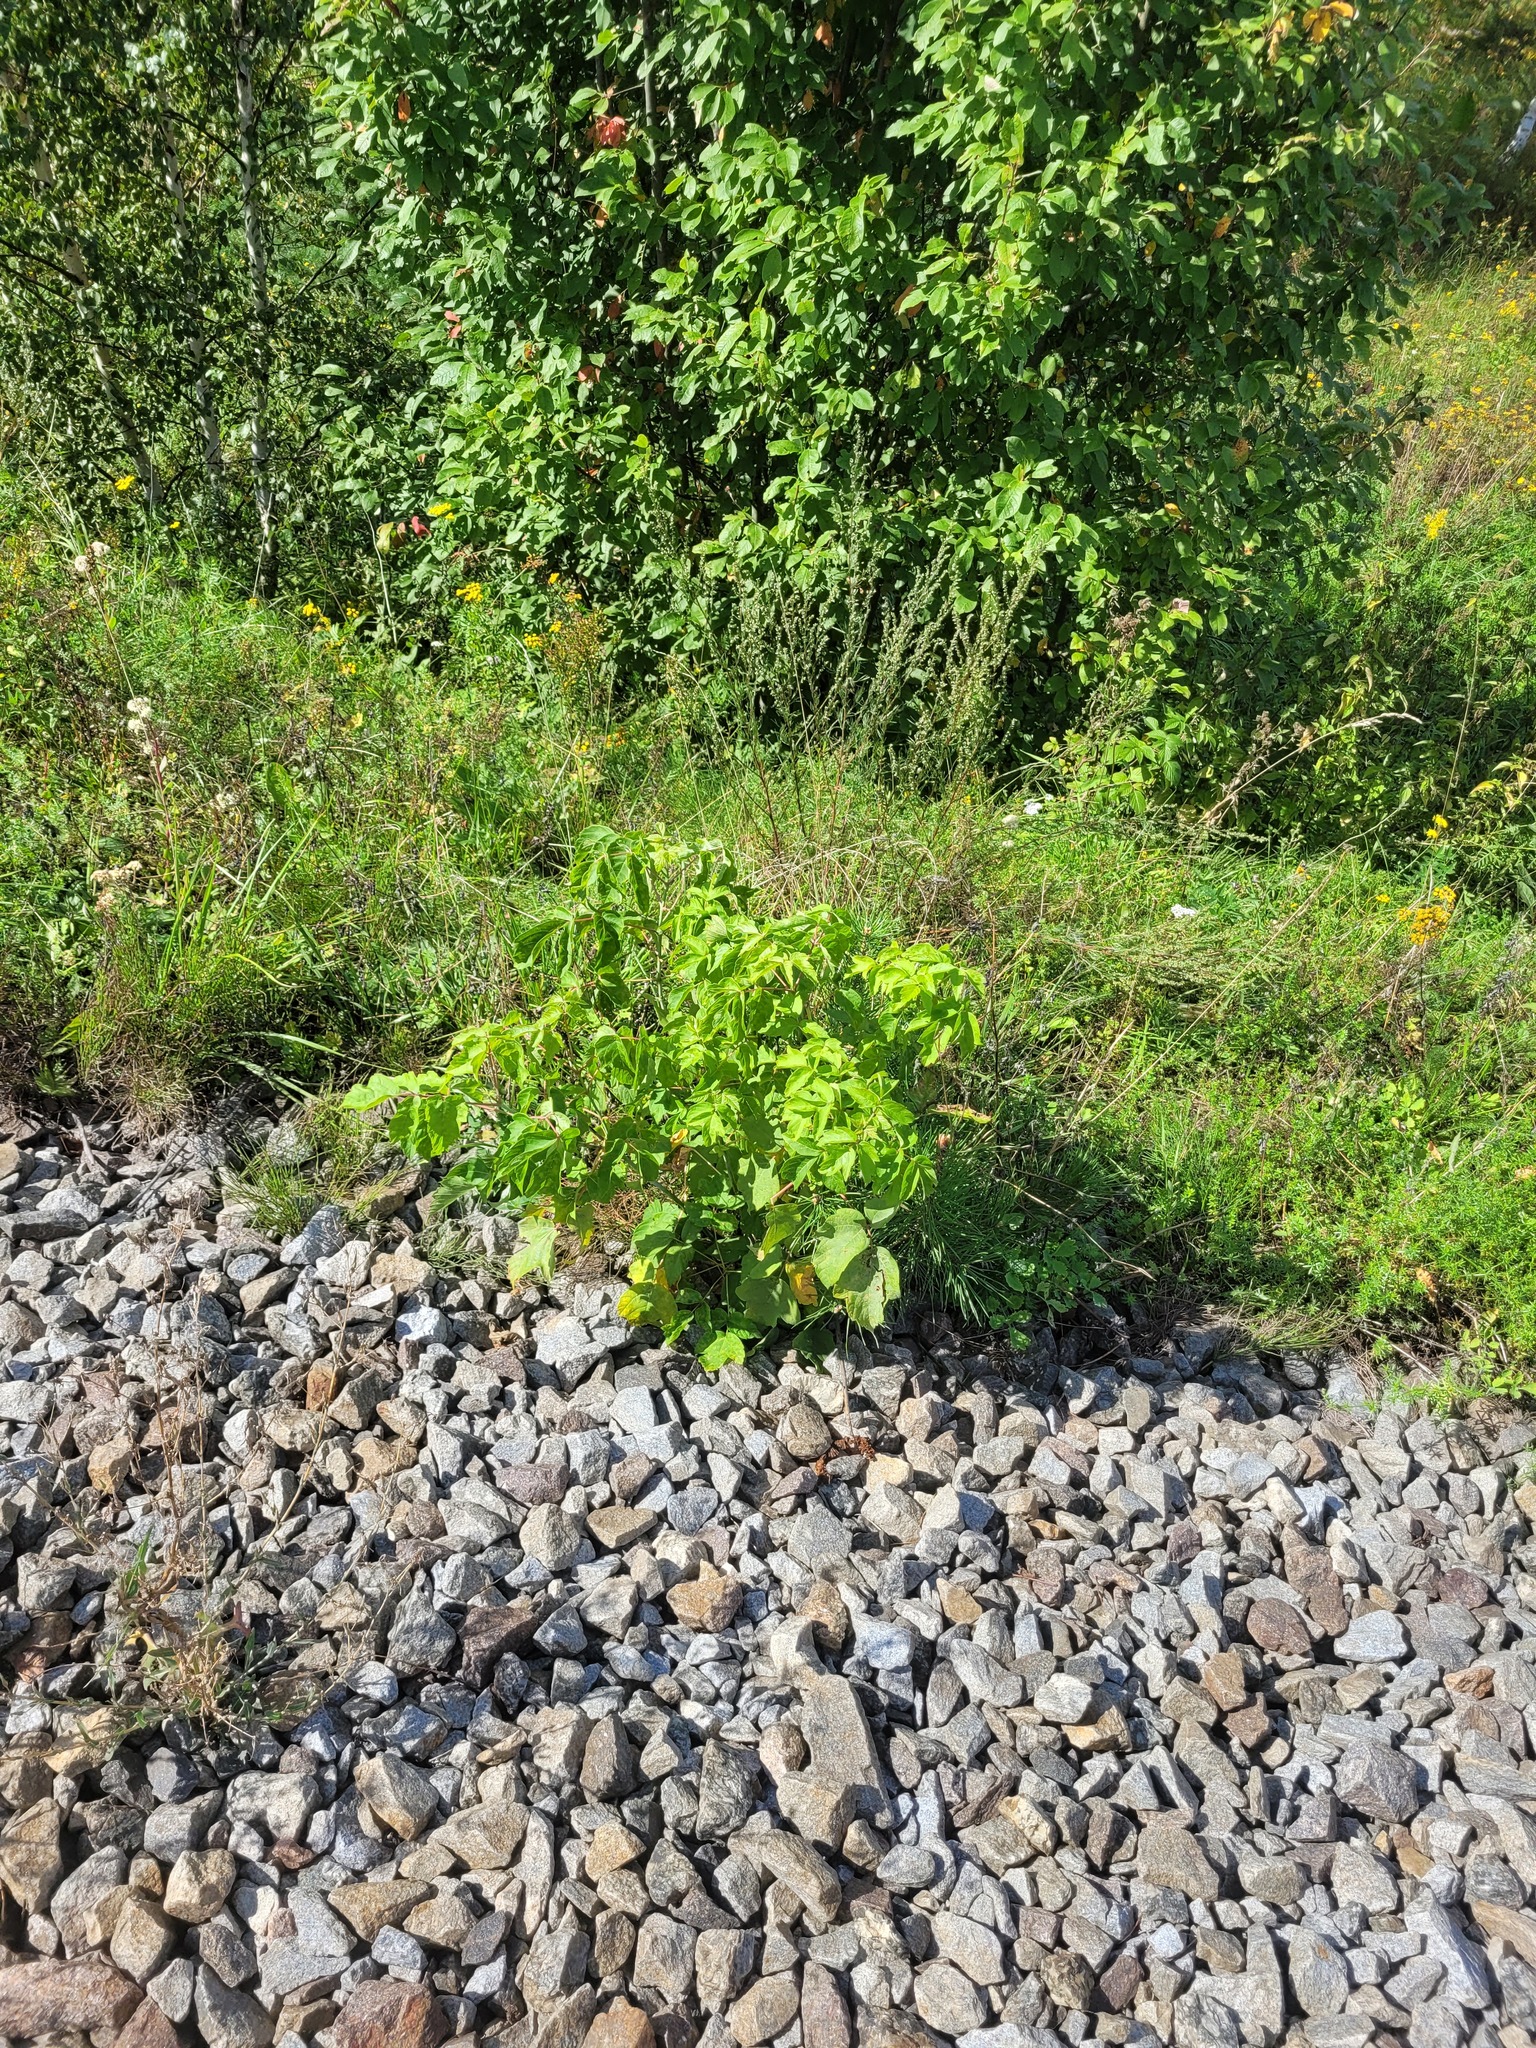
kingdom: Plantae
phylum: Tracheophyta
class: Magnoliopsida
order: Sapindales
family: Sapindaceae
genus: Acer
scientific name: Acer negundo
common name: Ashleaf maple
